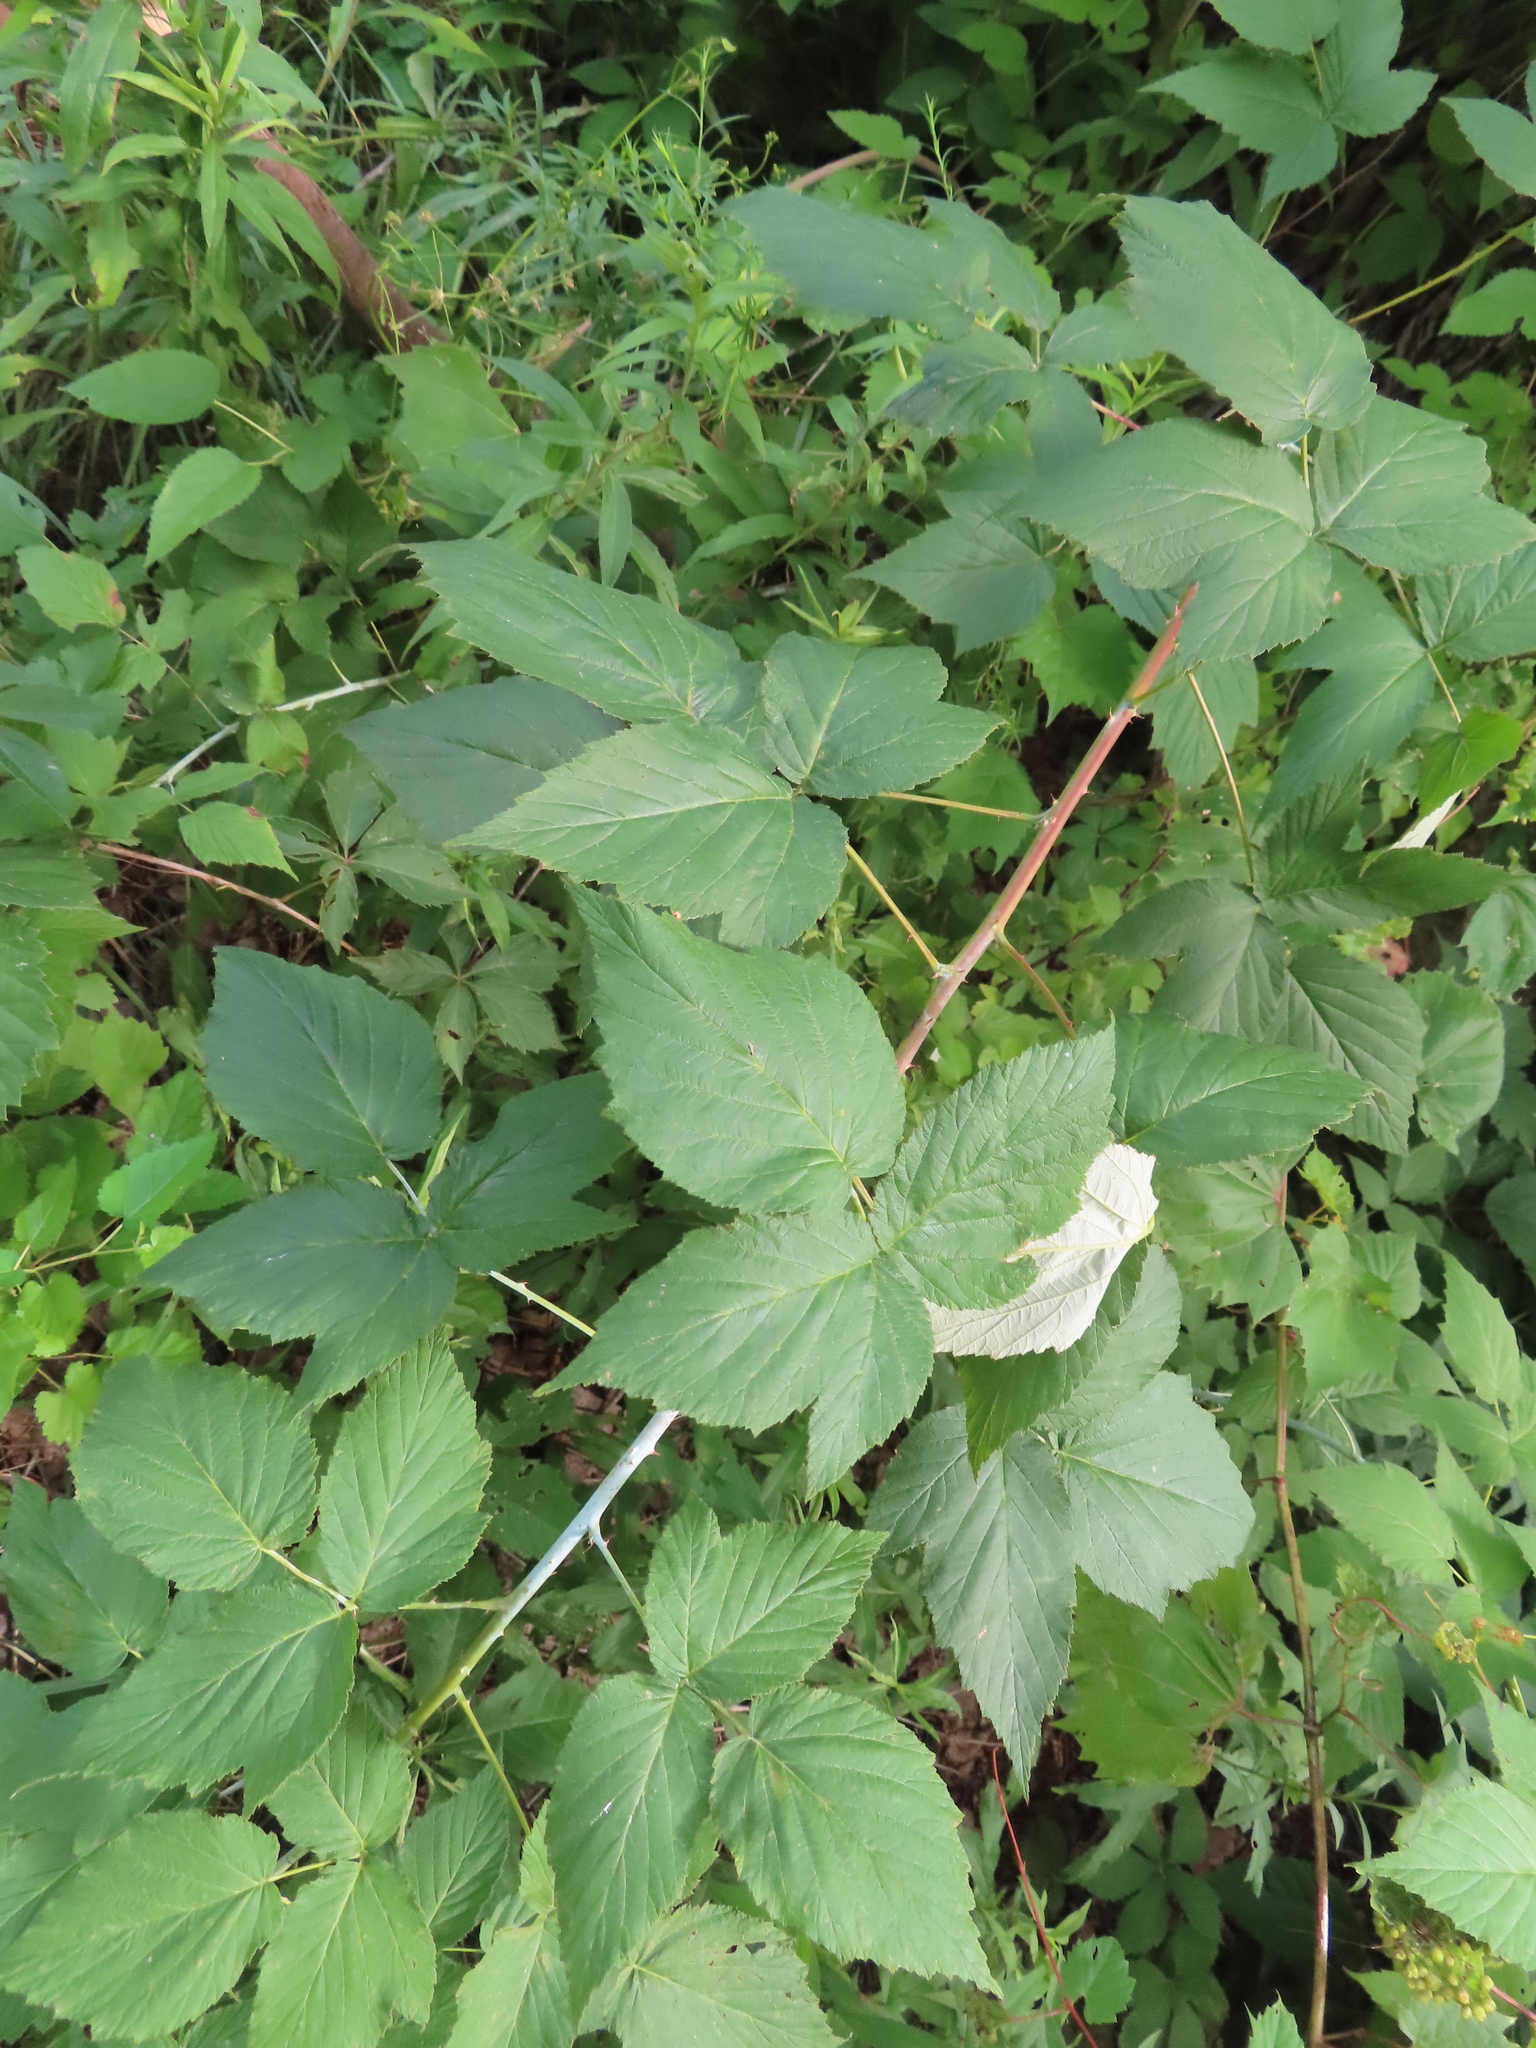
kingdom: Plantae
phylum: Tracheophyta
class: Magnoliopsida
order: Rosales
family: Rosaceae
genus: Rubus
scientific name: Rubus occidentalis
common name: Black raspberry
